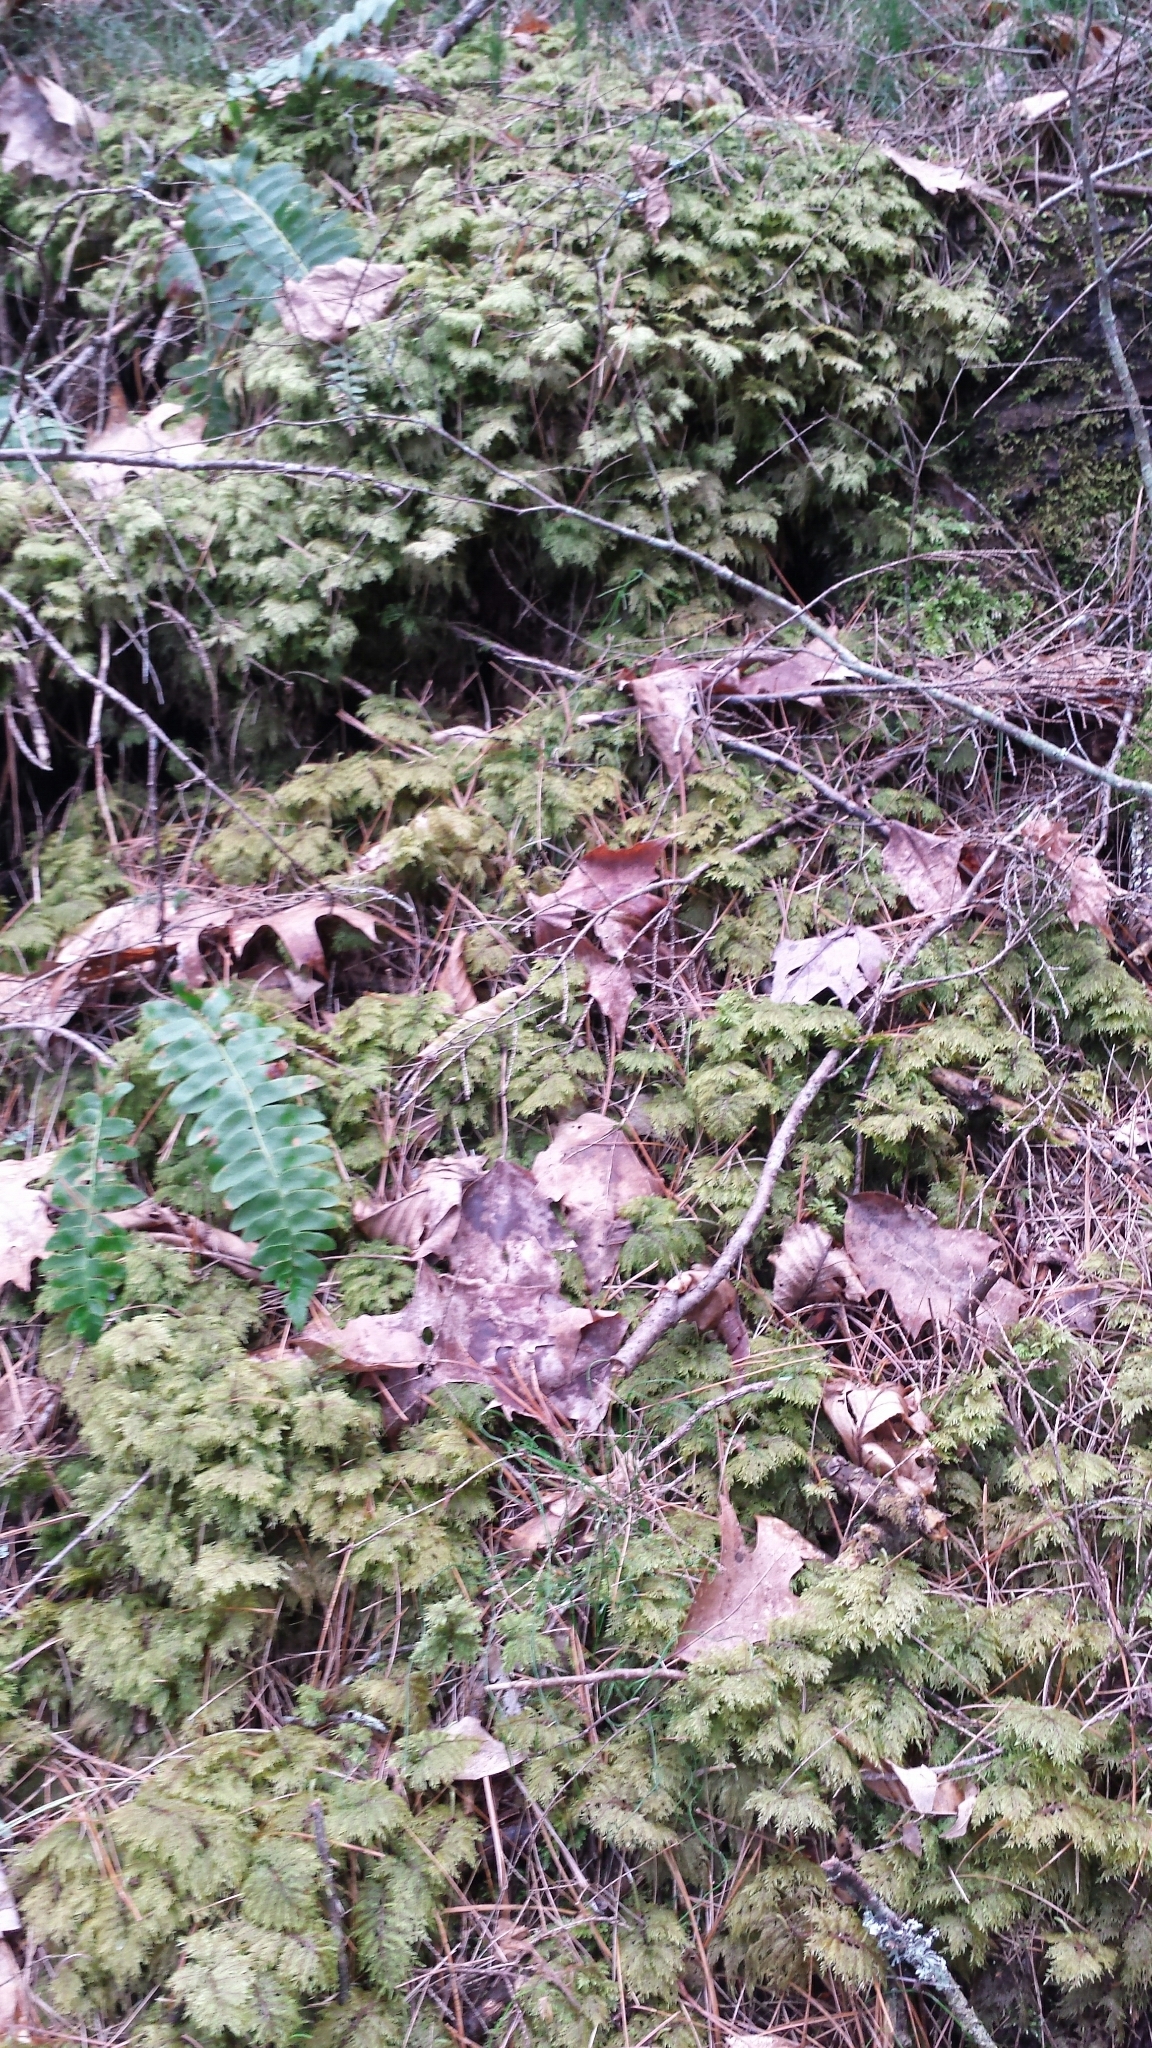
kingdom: Plantae
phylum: Bryophyta
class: Bryopsida
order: Hypnales
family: Hylocomiaceae
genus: Hylocomium
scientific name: Hylocomium splendens
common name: Stairstep moss
